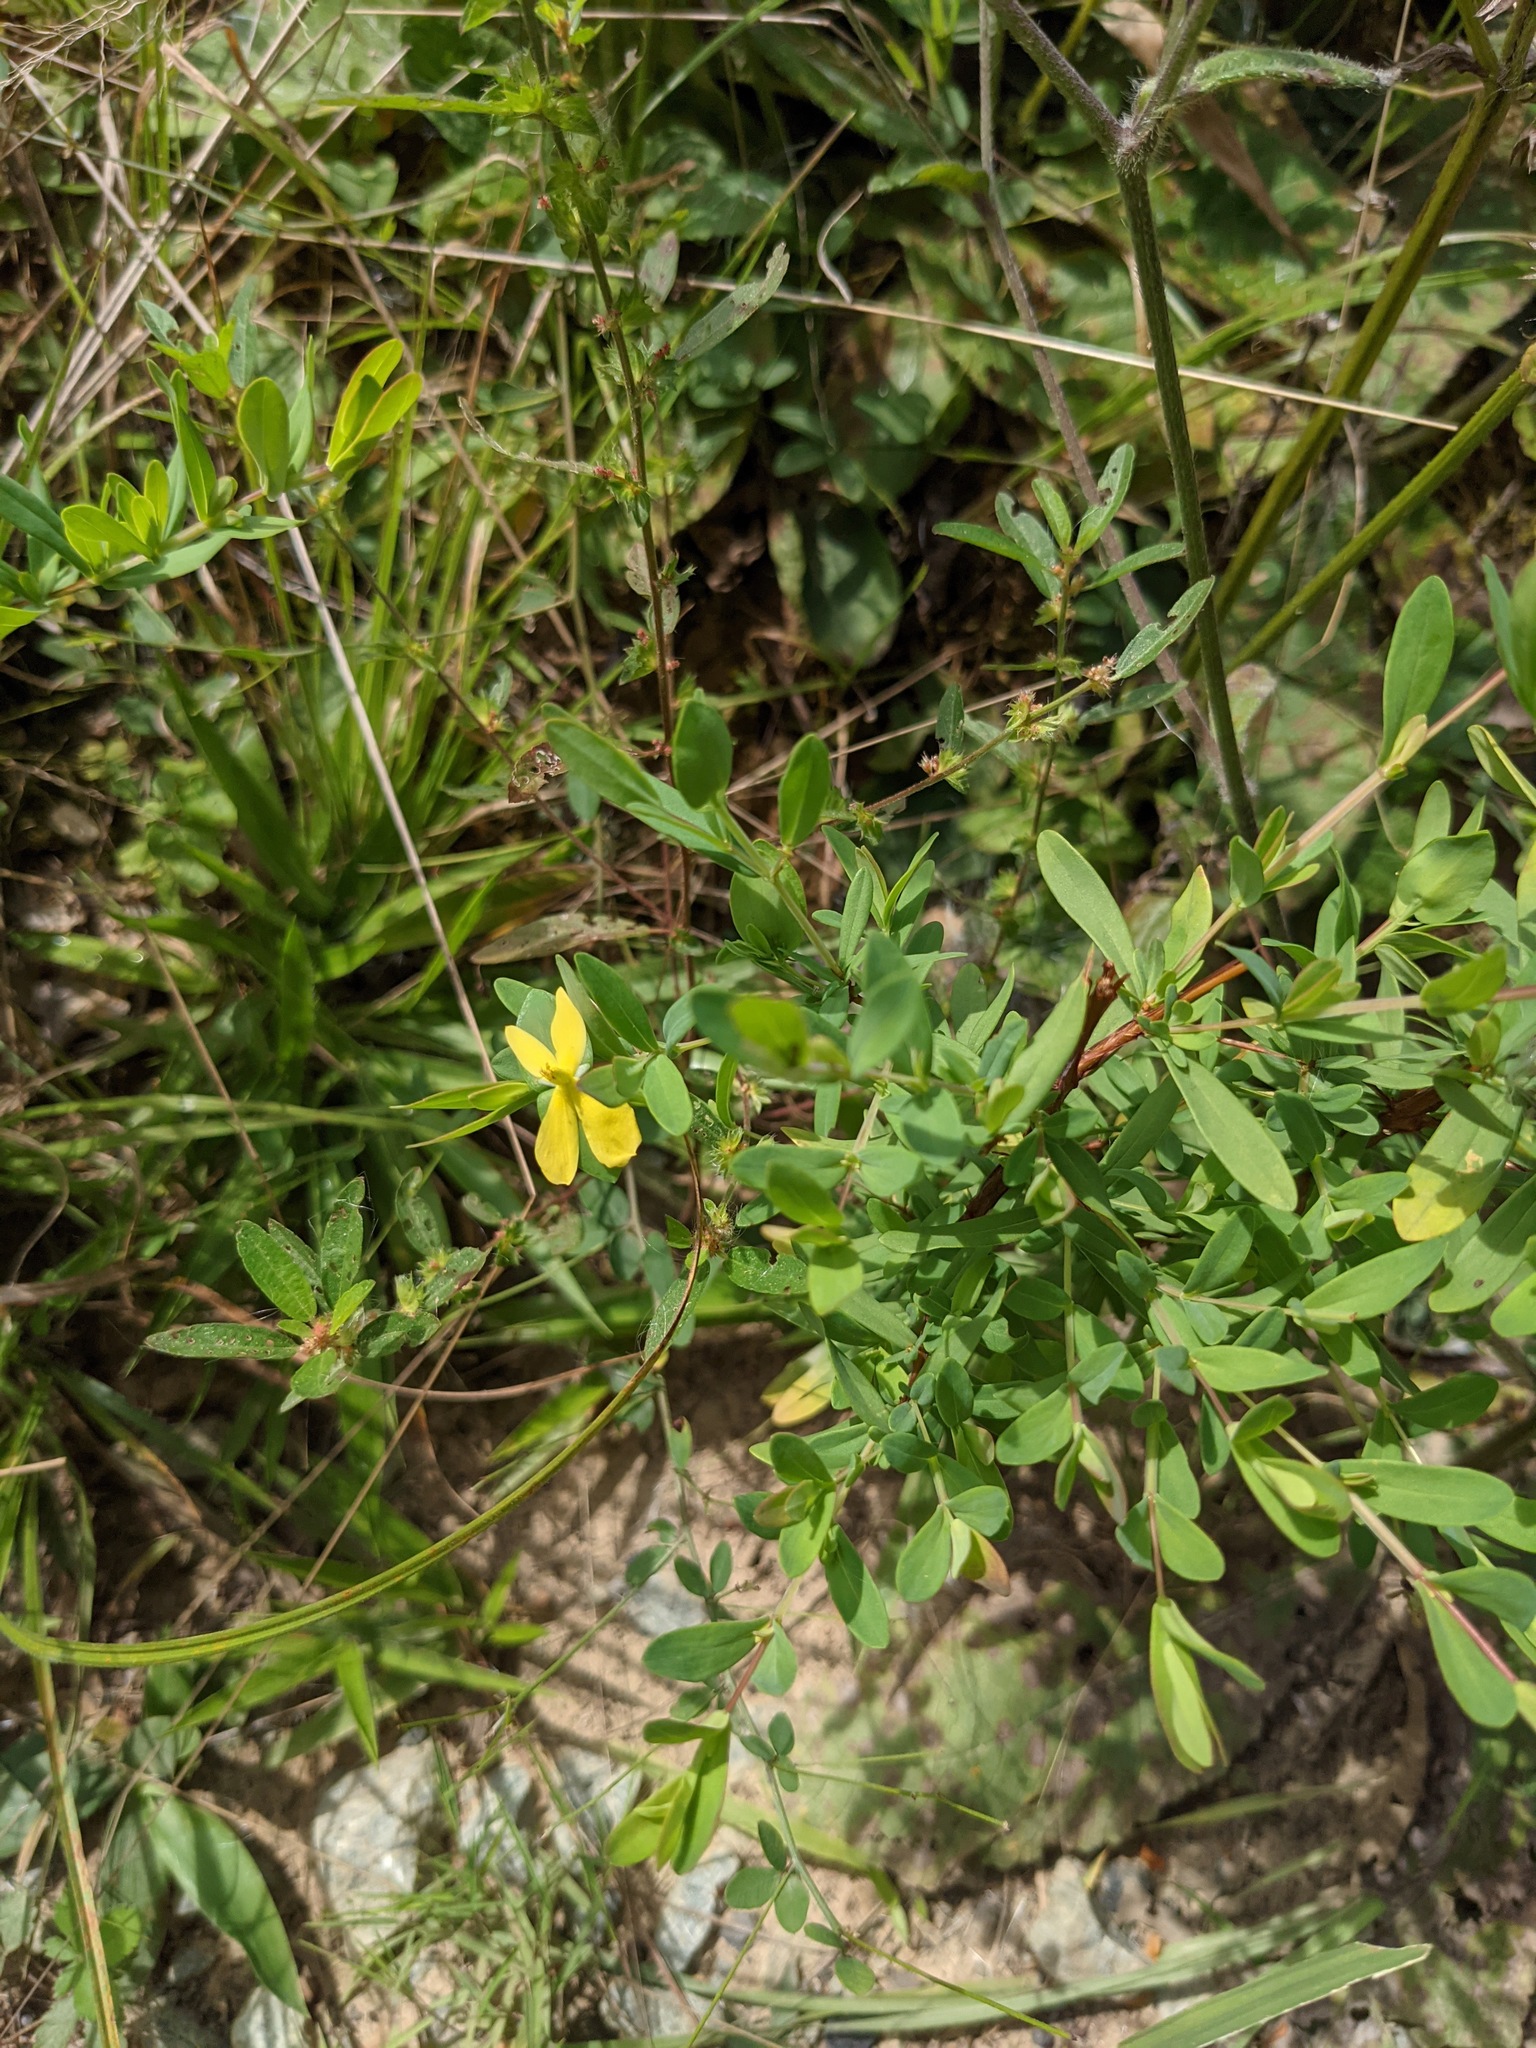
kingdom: Plantae
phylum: Tracheophyta
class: Magnoliopsida
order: Malpighiales
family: Hypericaceae
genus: Hypericum
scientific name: Hypericum hypericoides
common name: St. andrew's cross
